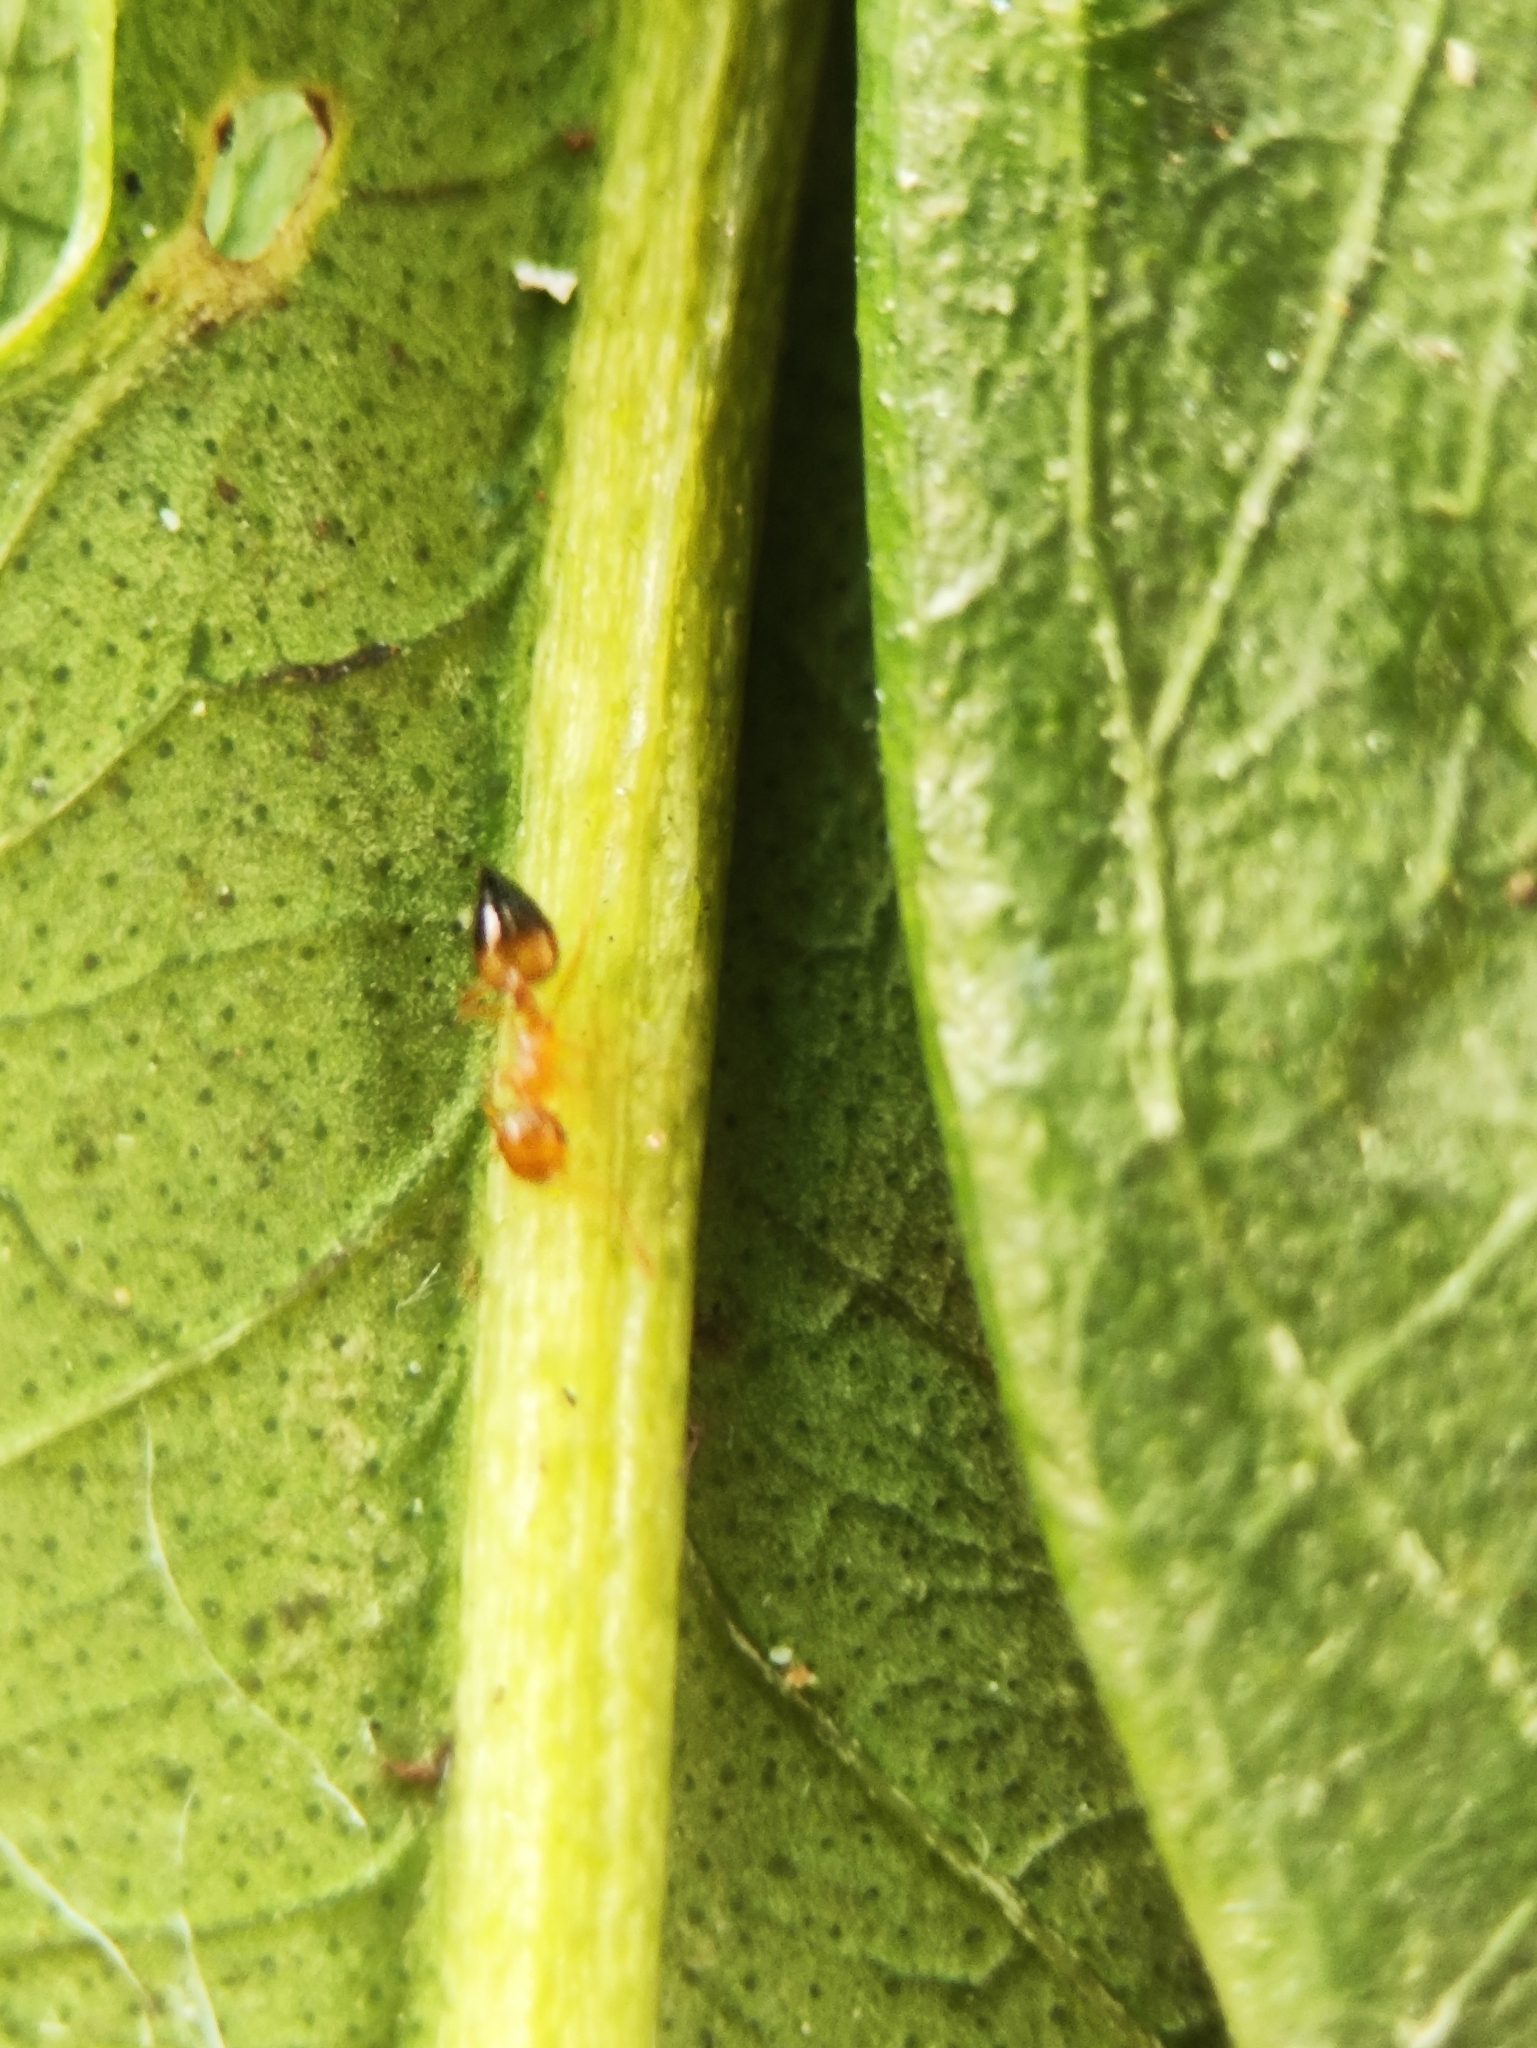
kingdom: Animalia
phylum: Arthropoda
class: Insecta
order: Hymenoptera
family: Formicidae
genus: Crematogaster
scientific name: Crematogaster biroi
